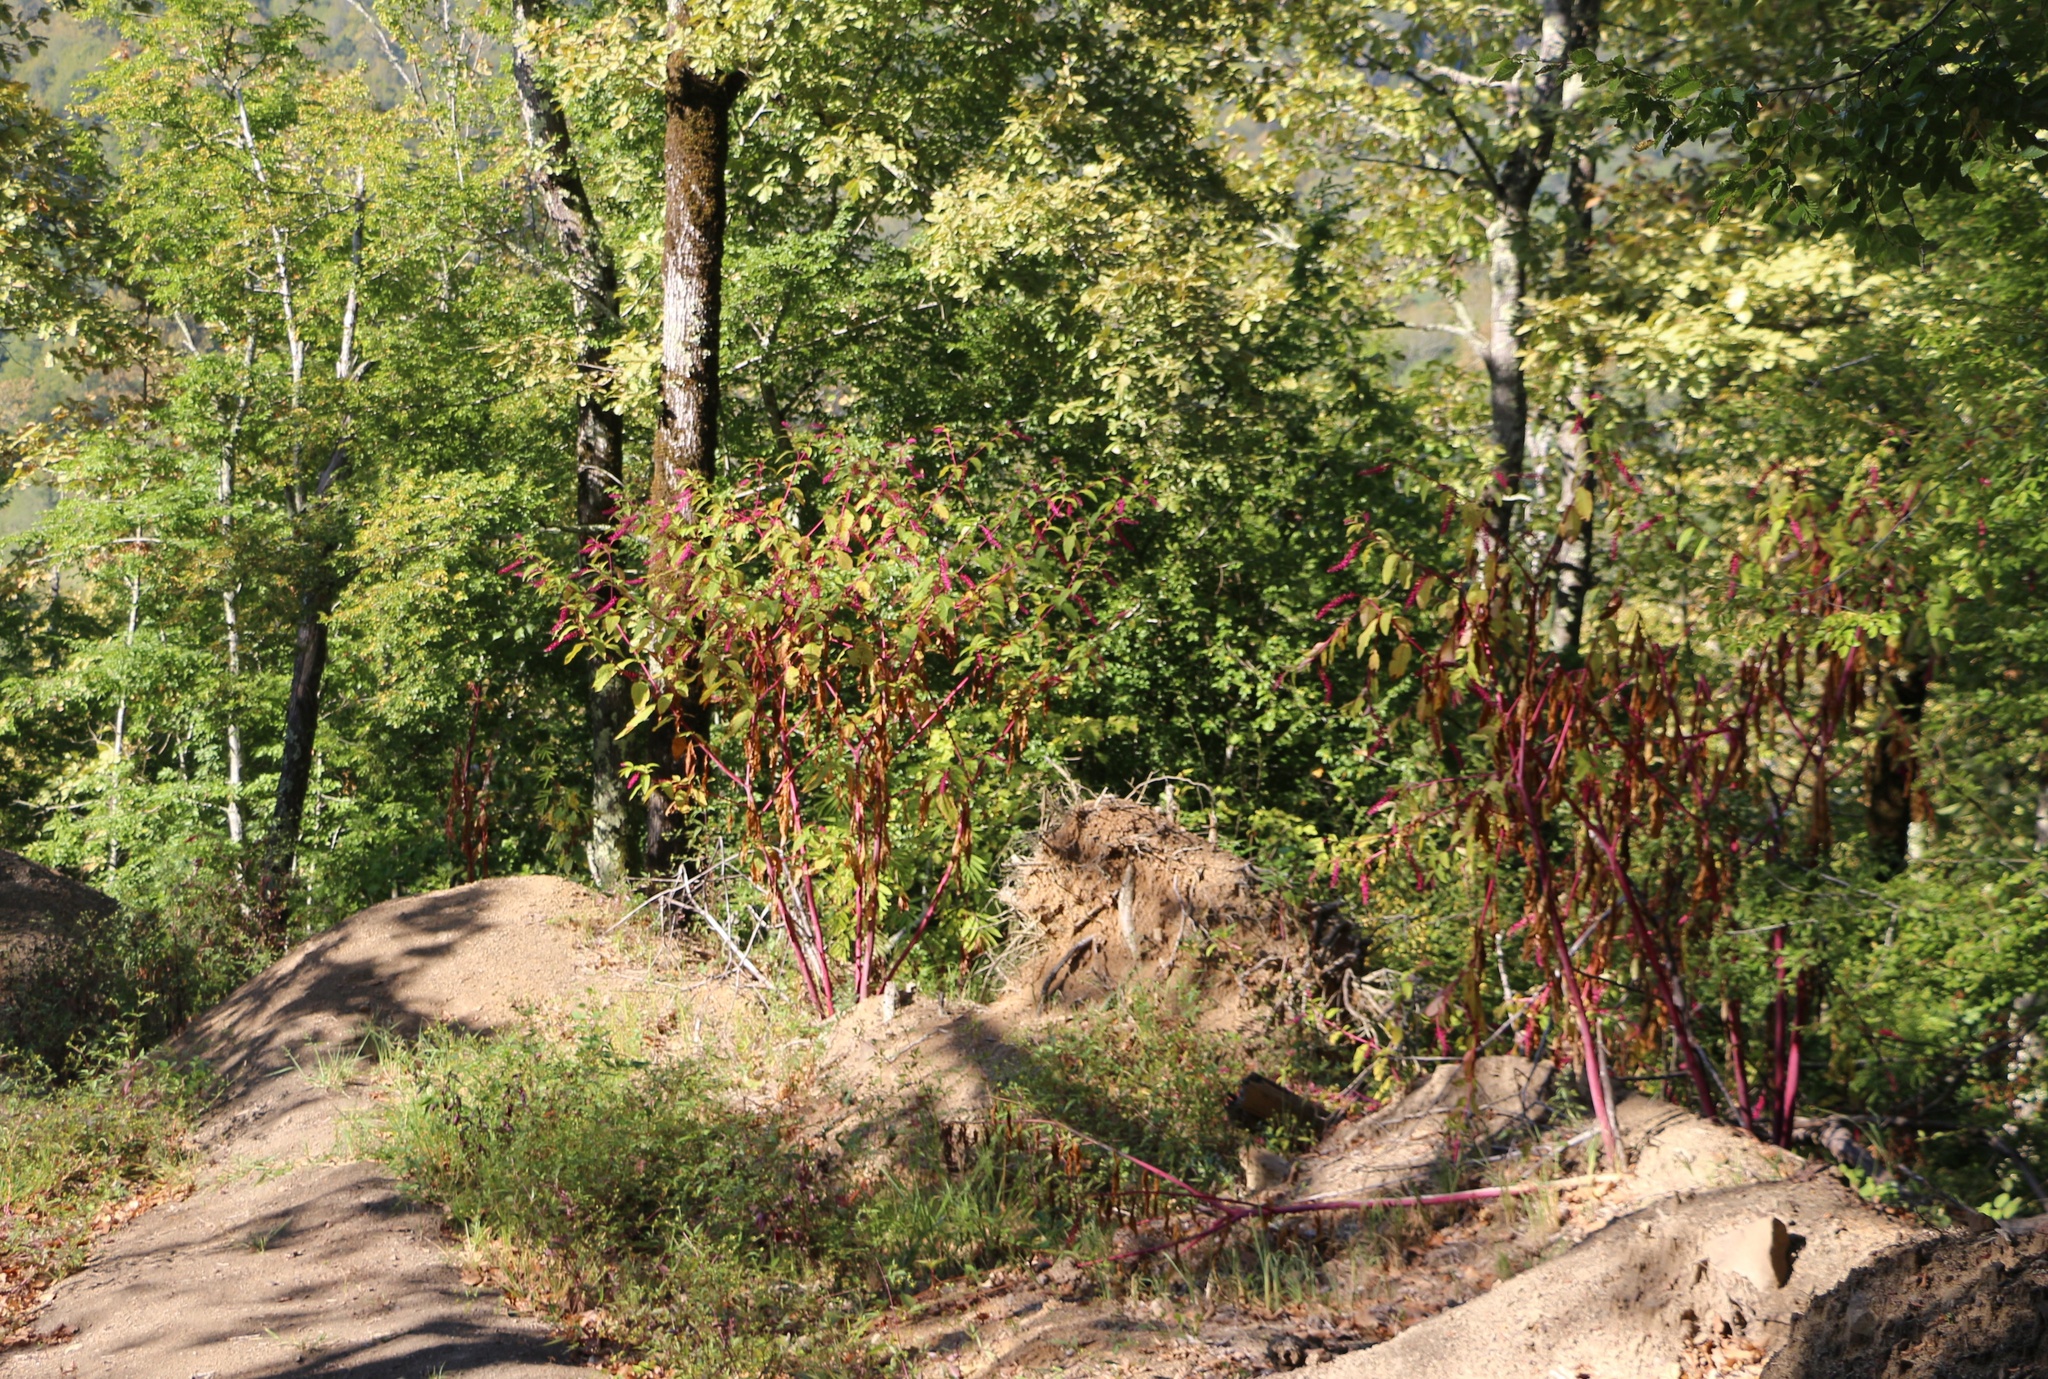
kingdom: Plantae
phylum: Tracheophyta
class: Magnoliopsida
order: Caryophyllales
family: Phytolaccaceae
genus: Phytolacca
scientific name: Phytolacca americana
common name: American pokeweed
